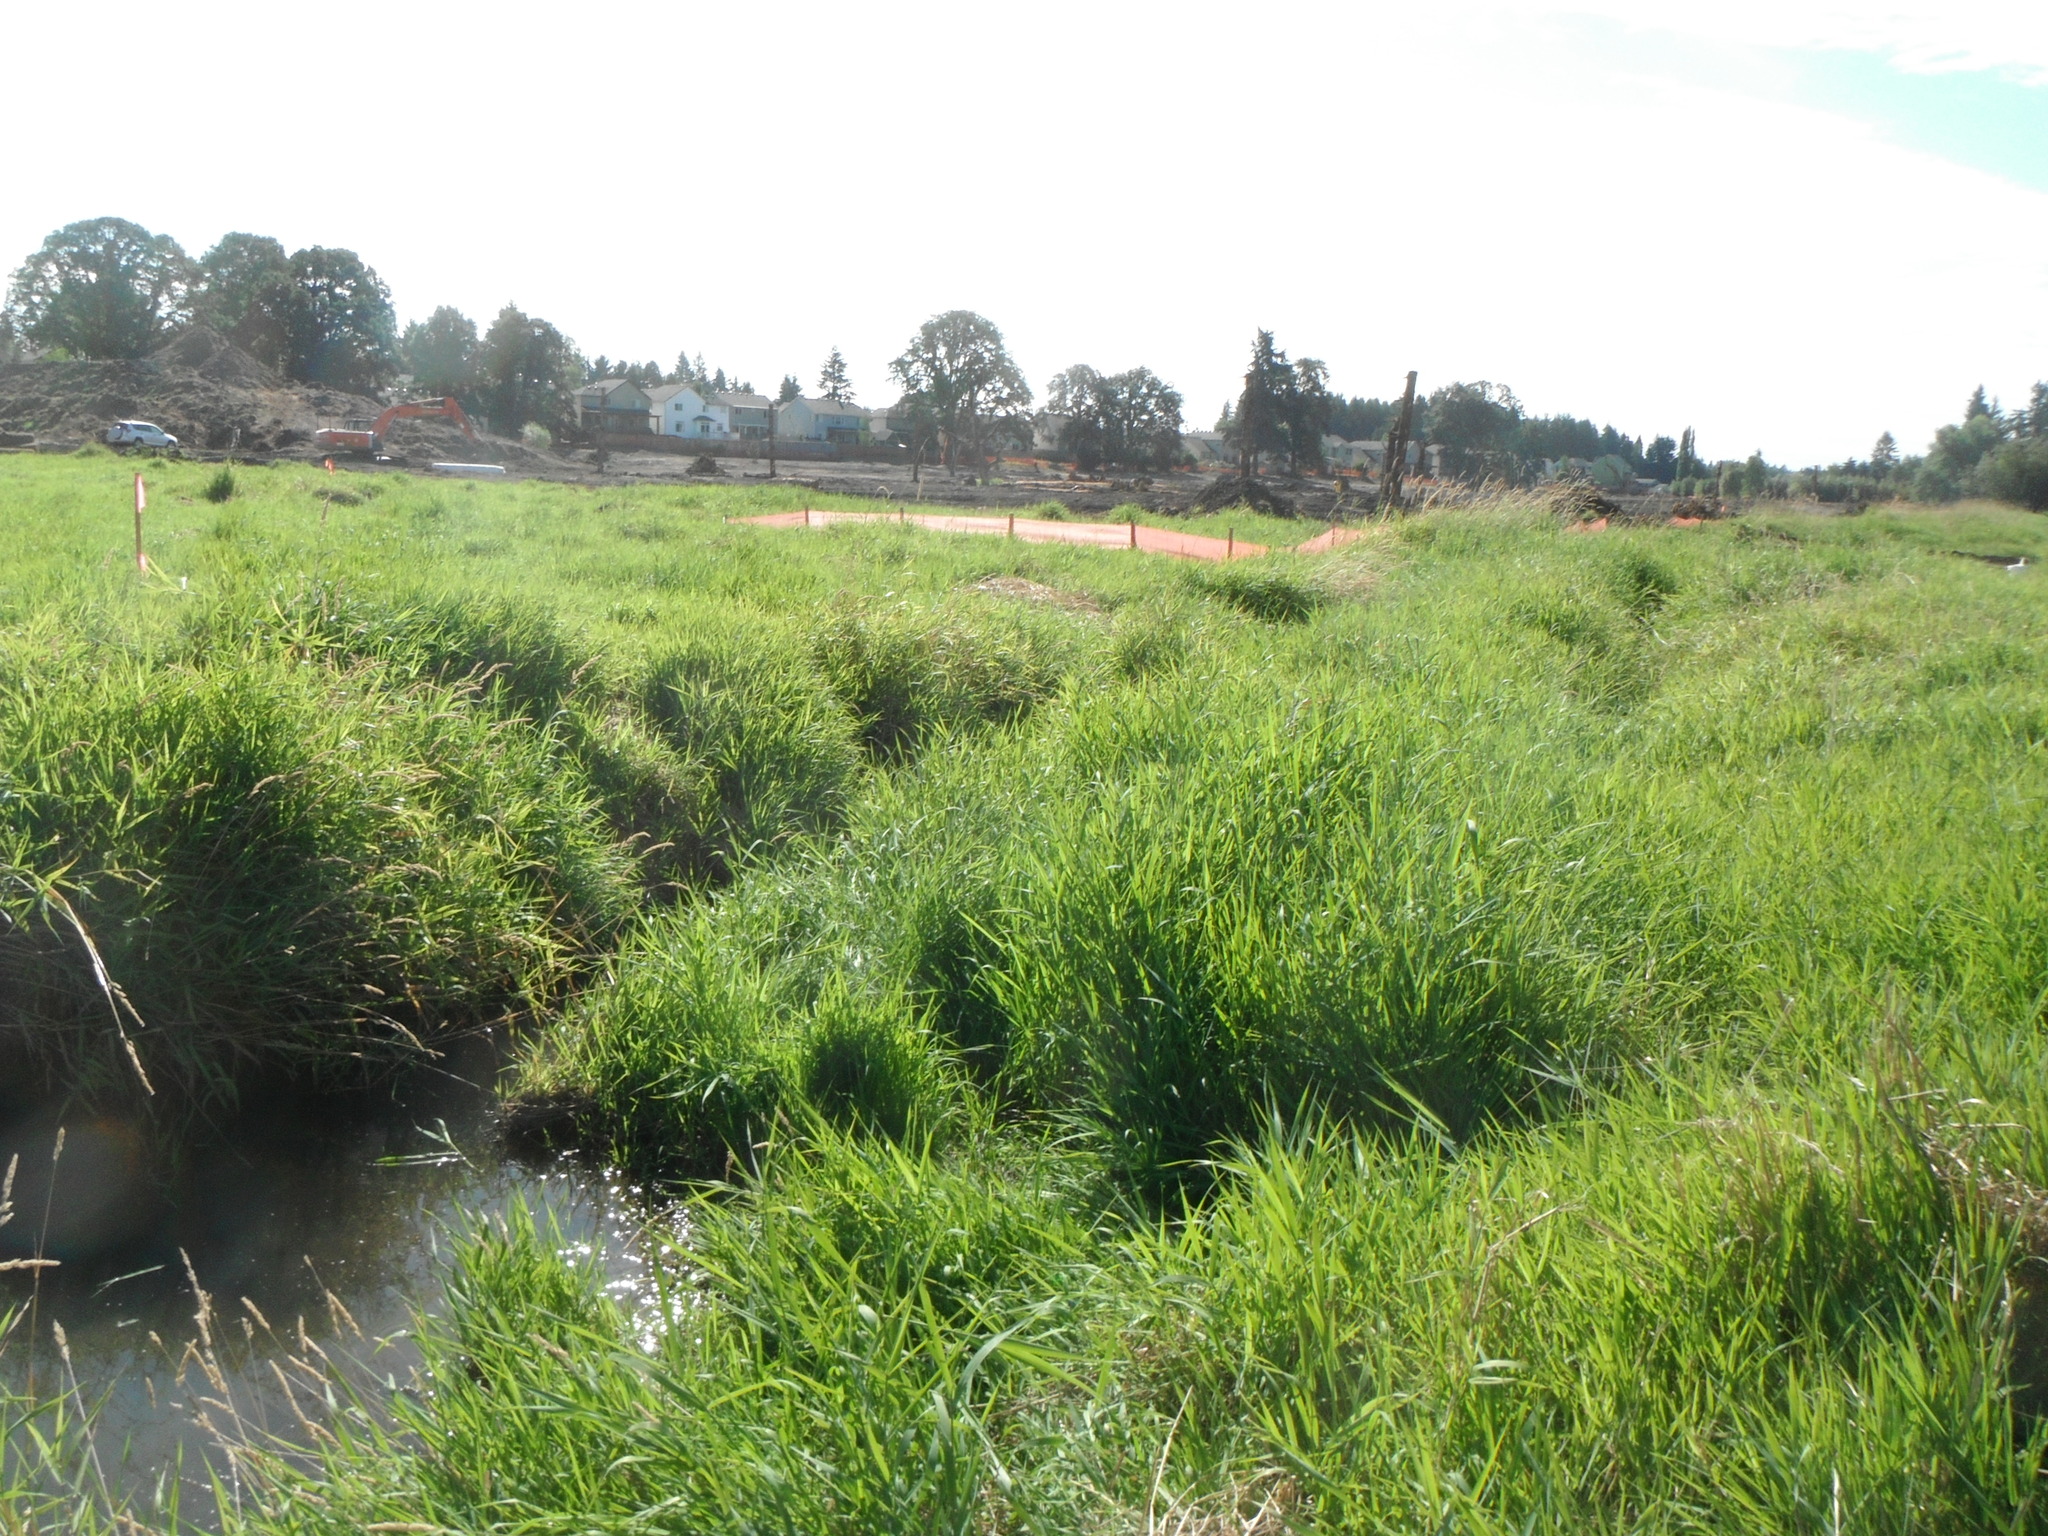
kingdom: Plantae
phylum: Tracheophyta
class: Liliopsida
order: Poales
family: Poaceae
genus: Phalaris
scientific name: Phalaris arundinacea
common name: Reed canary-grass
